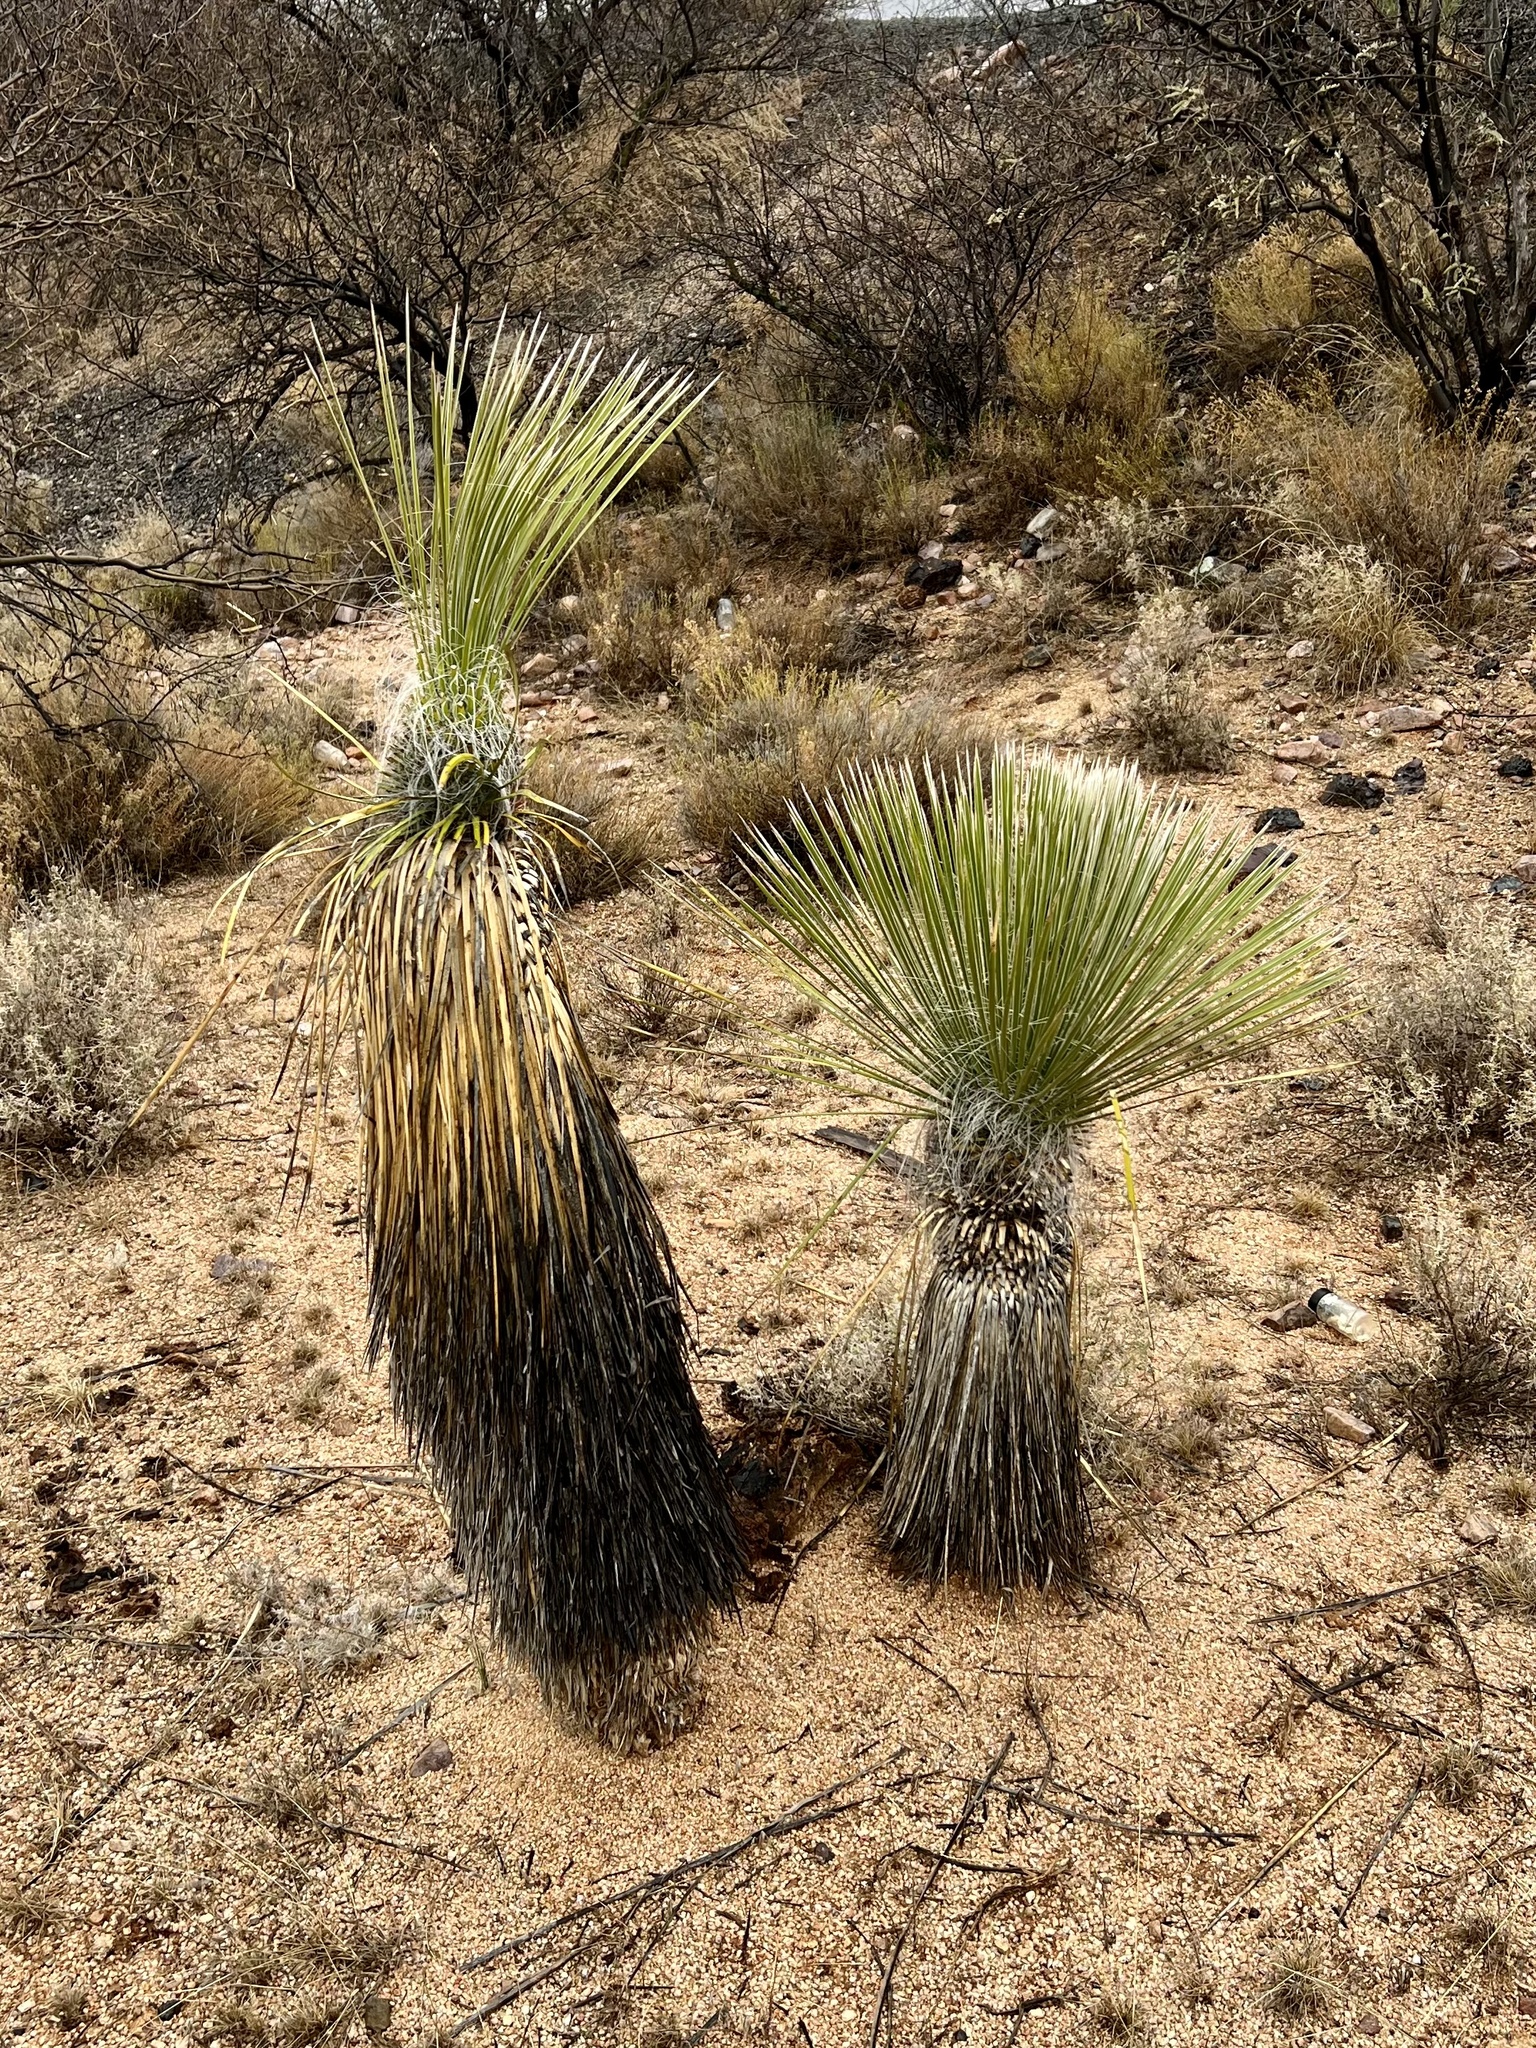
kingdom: Plantae
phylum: Tracheophyta
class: Liliopsida
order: Asparagales
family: Asparagaceae
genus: Yucca
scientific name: Yucca elata
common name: Palmella
